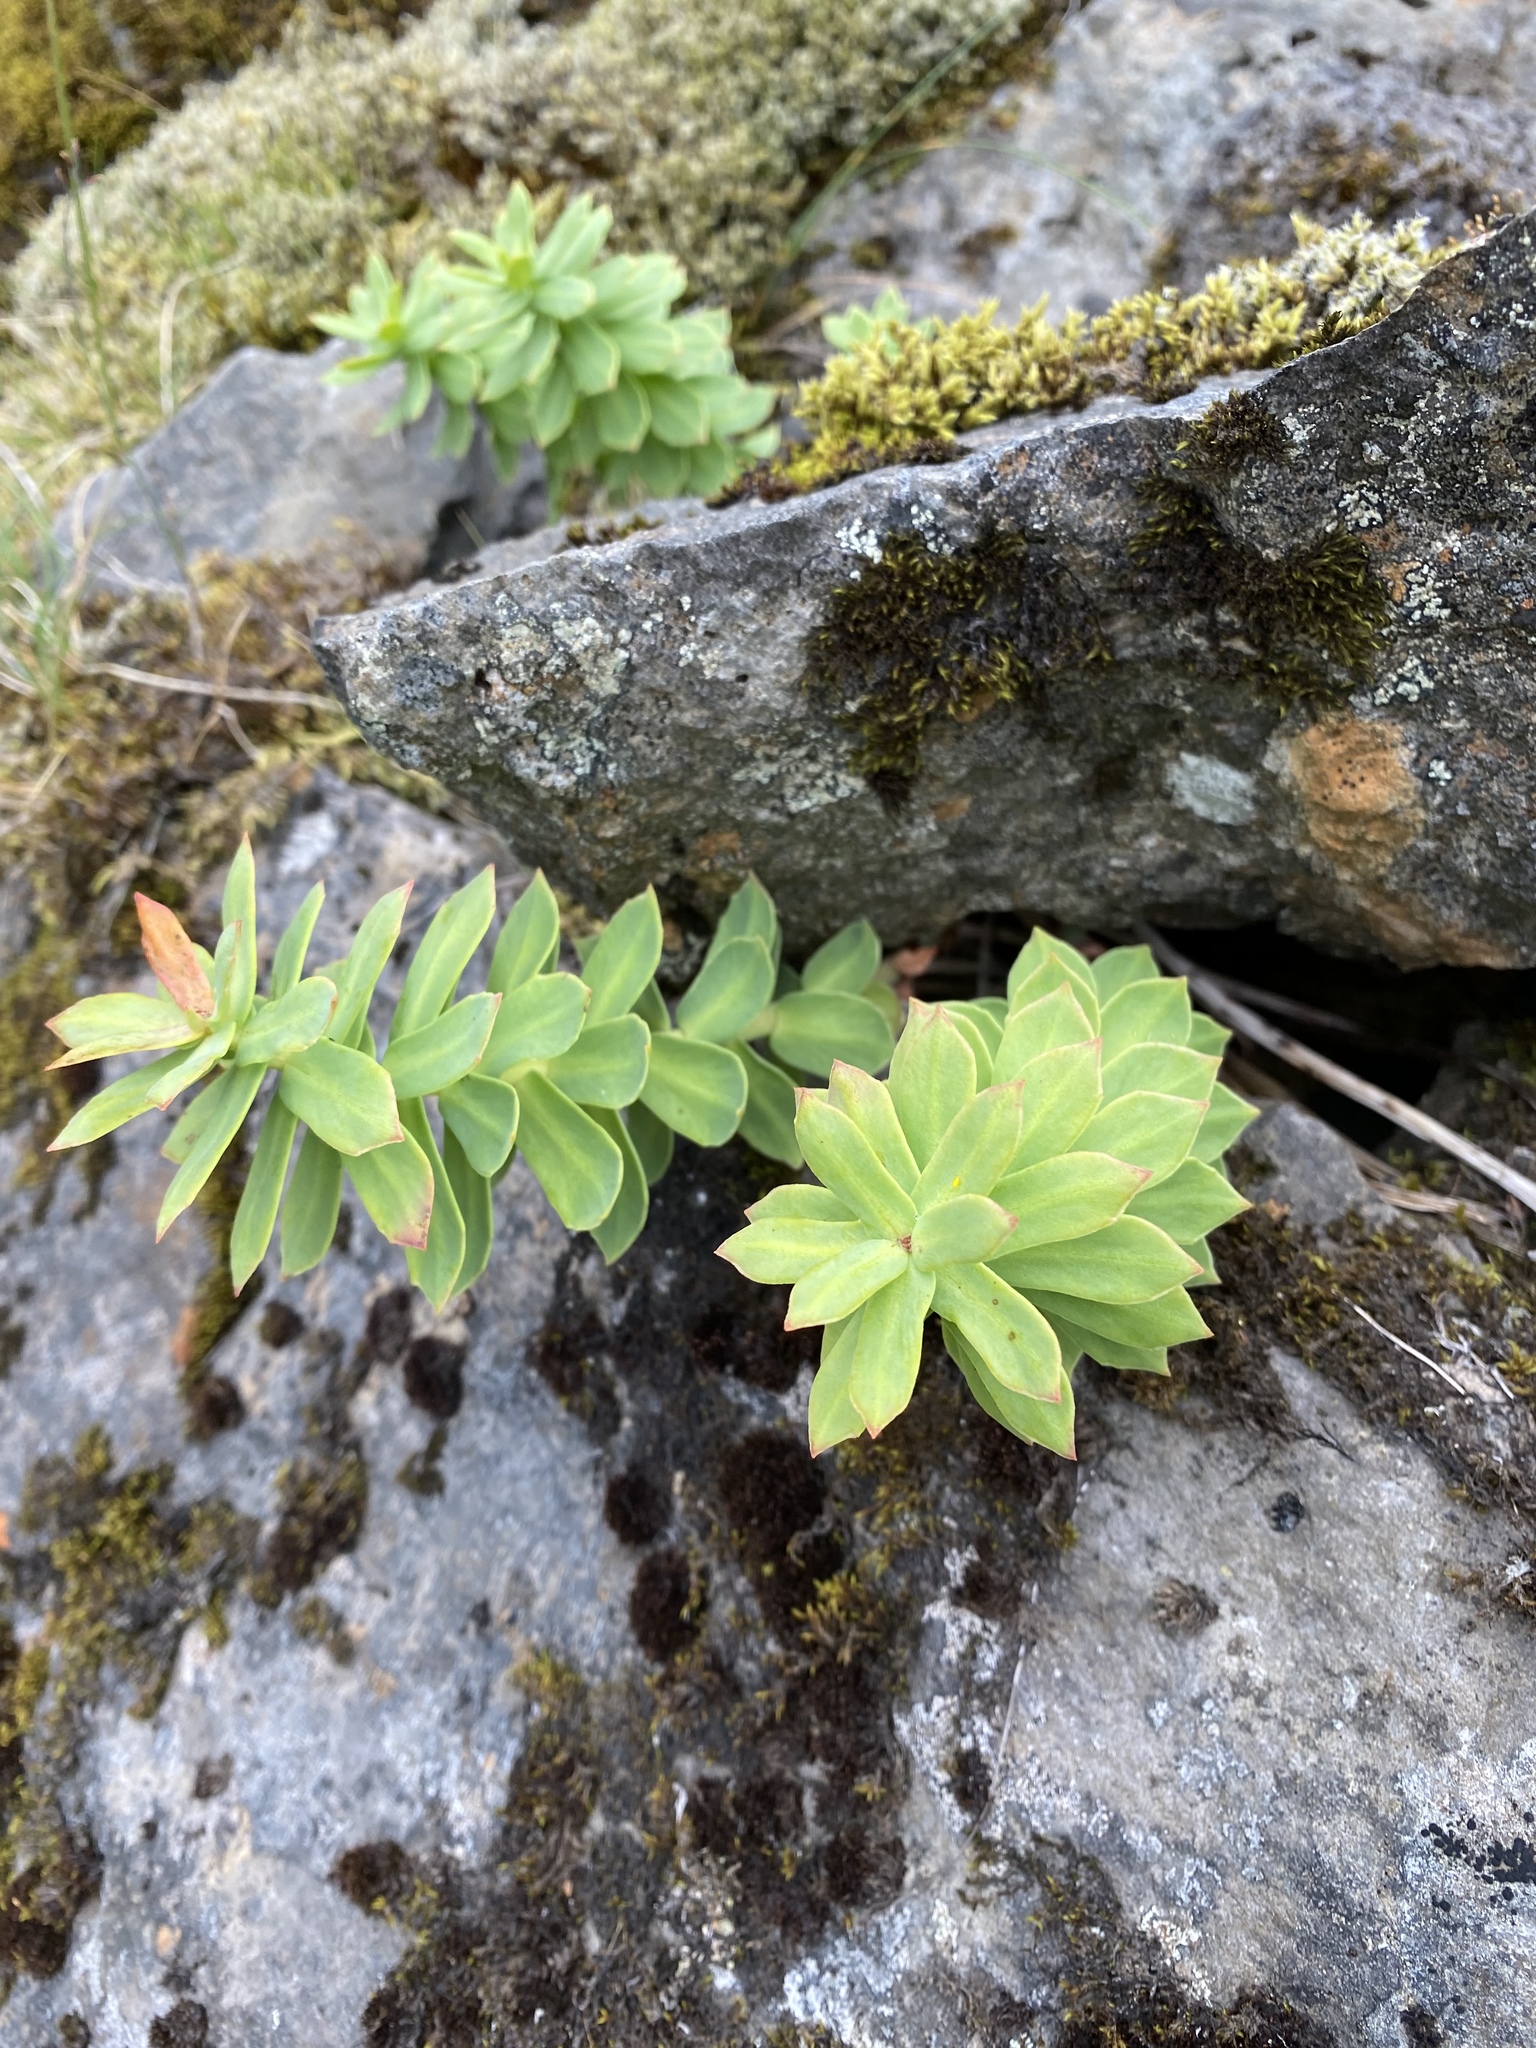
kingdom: Plantae
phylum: Tracheophyta
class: Magnoliopsida
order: Saxifragales
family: Crassulaceae
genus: Rhodiola
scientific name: Rhodiola rosea
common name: Roseroot
